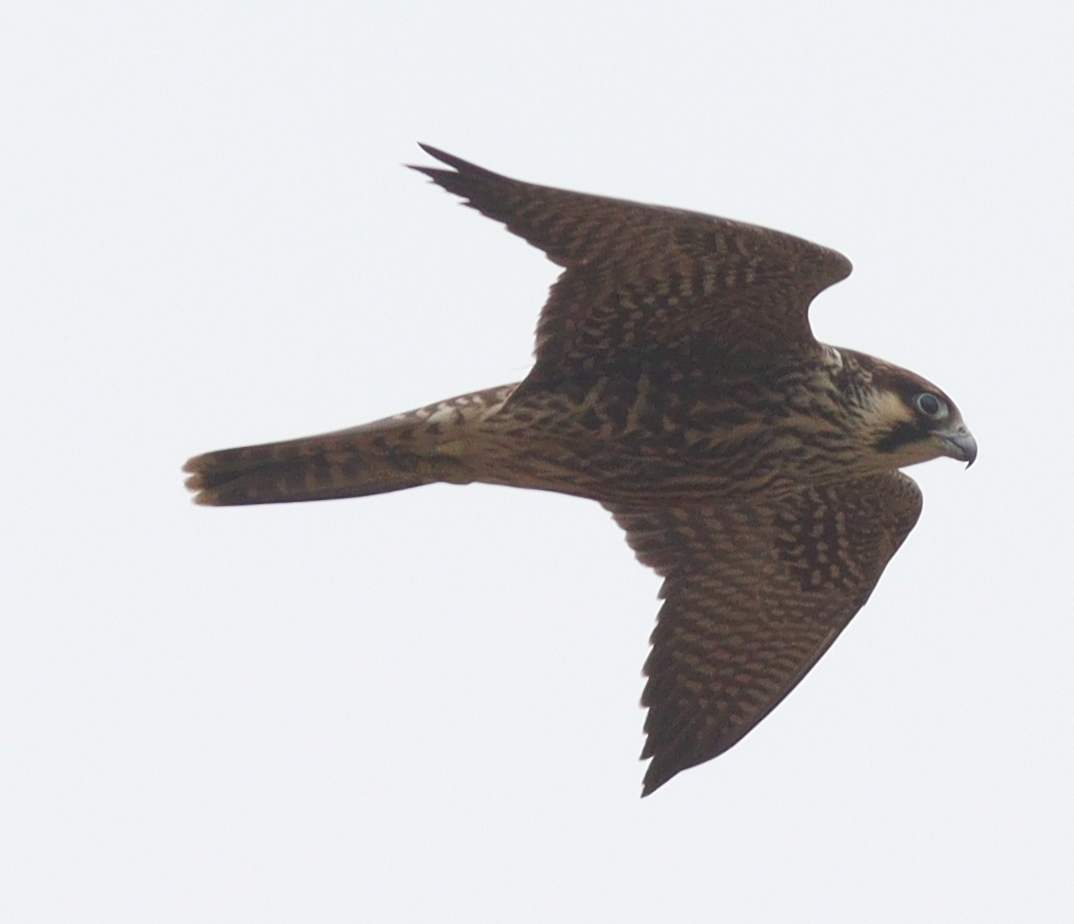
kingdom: Animalia
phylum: Chordata
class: Aves
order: Falconiformes
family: Falconidae
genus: Falco
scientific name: Falco peregrinus
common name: Peregrine falcon
